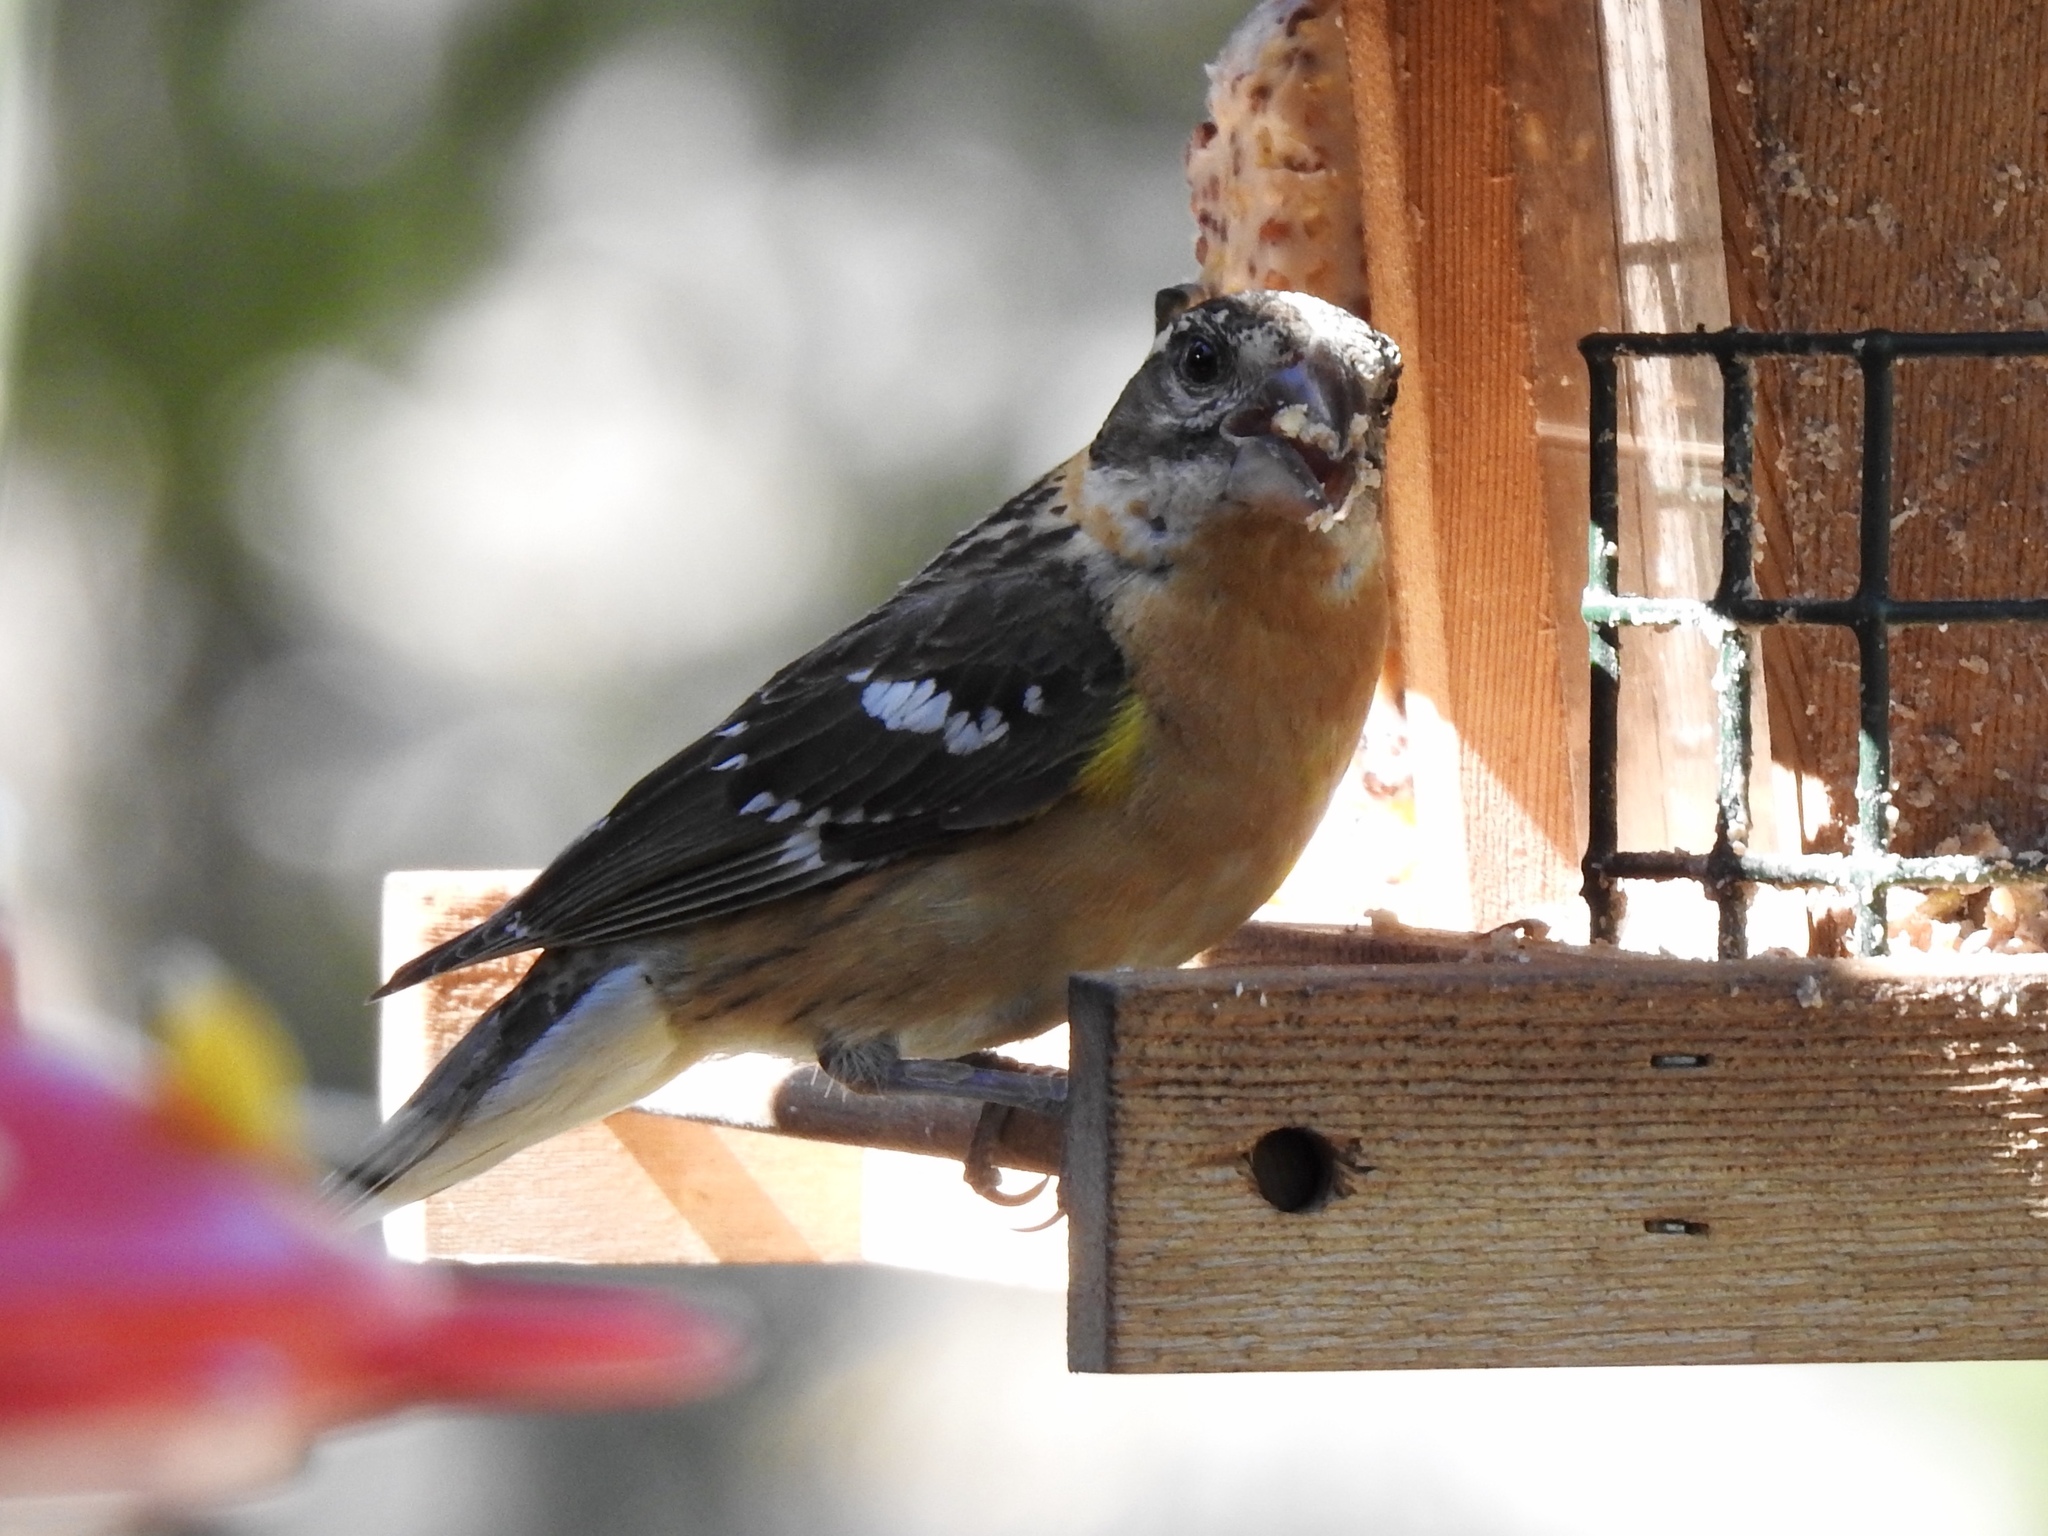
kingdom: Animalia
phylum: Chordata
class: Aves
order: Passeriformes
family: Cardinalidae
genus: Pheucticus
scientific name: Pheucticus melanocephalus
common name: Black-headed grosbeak
